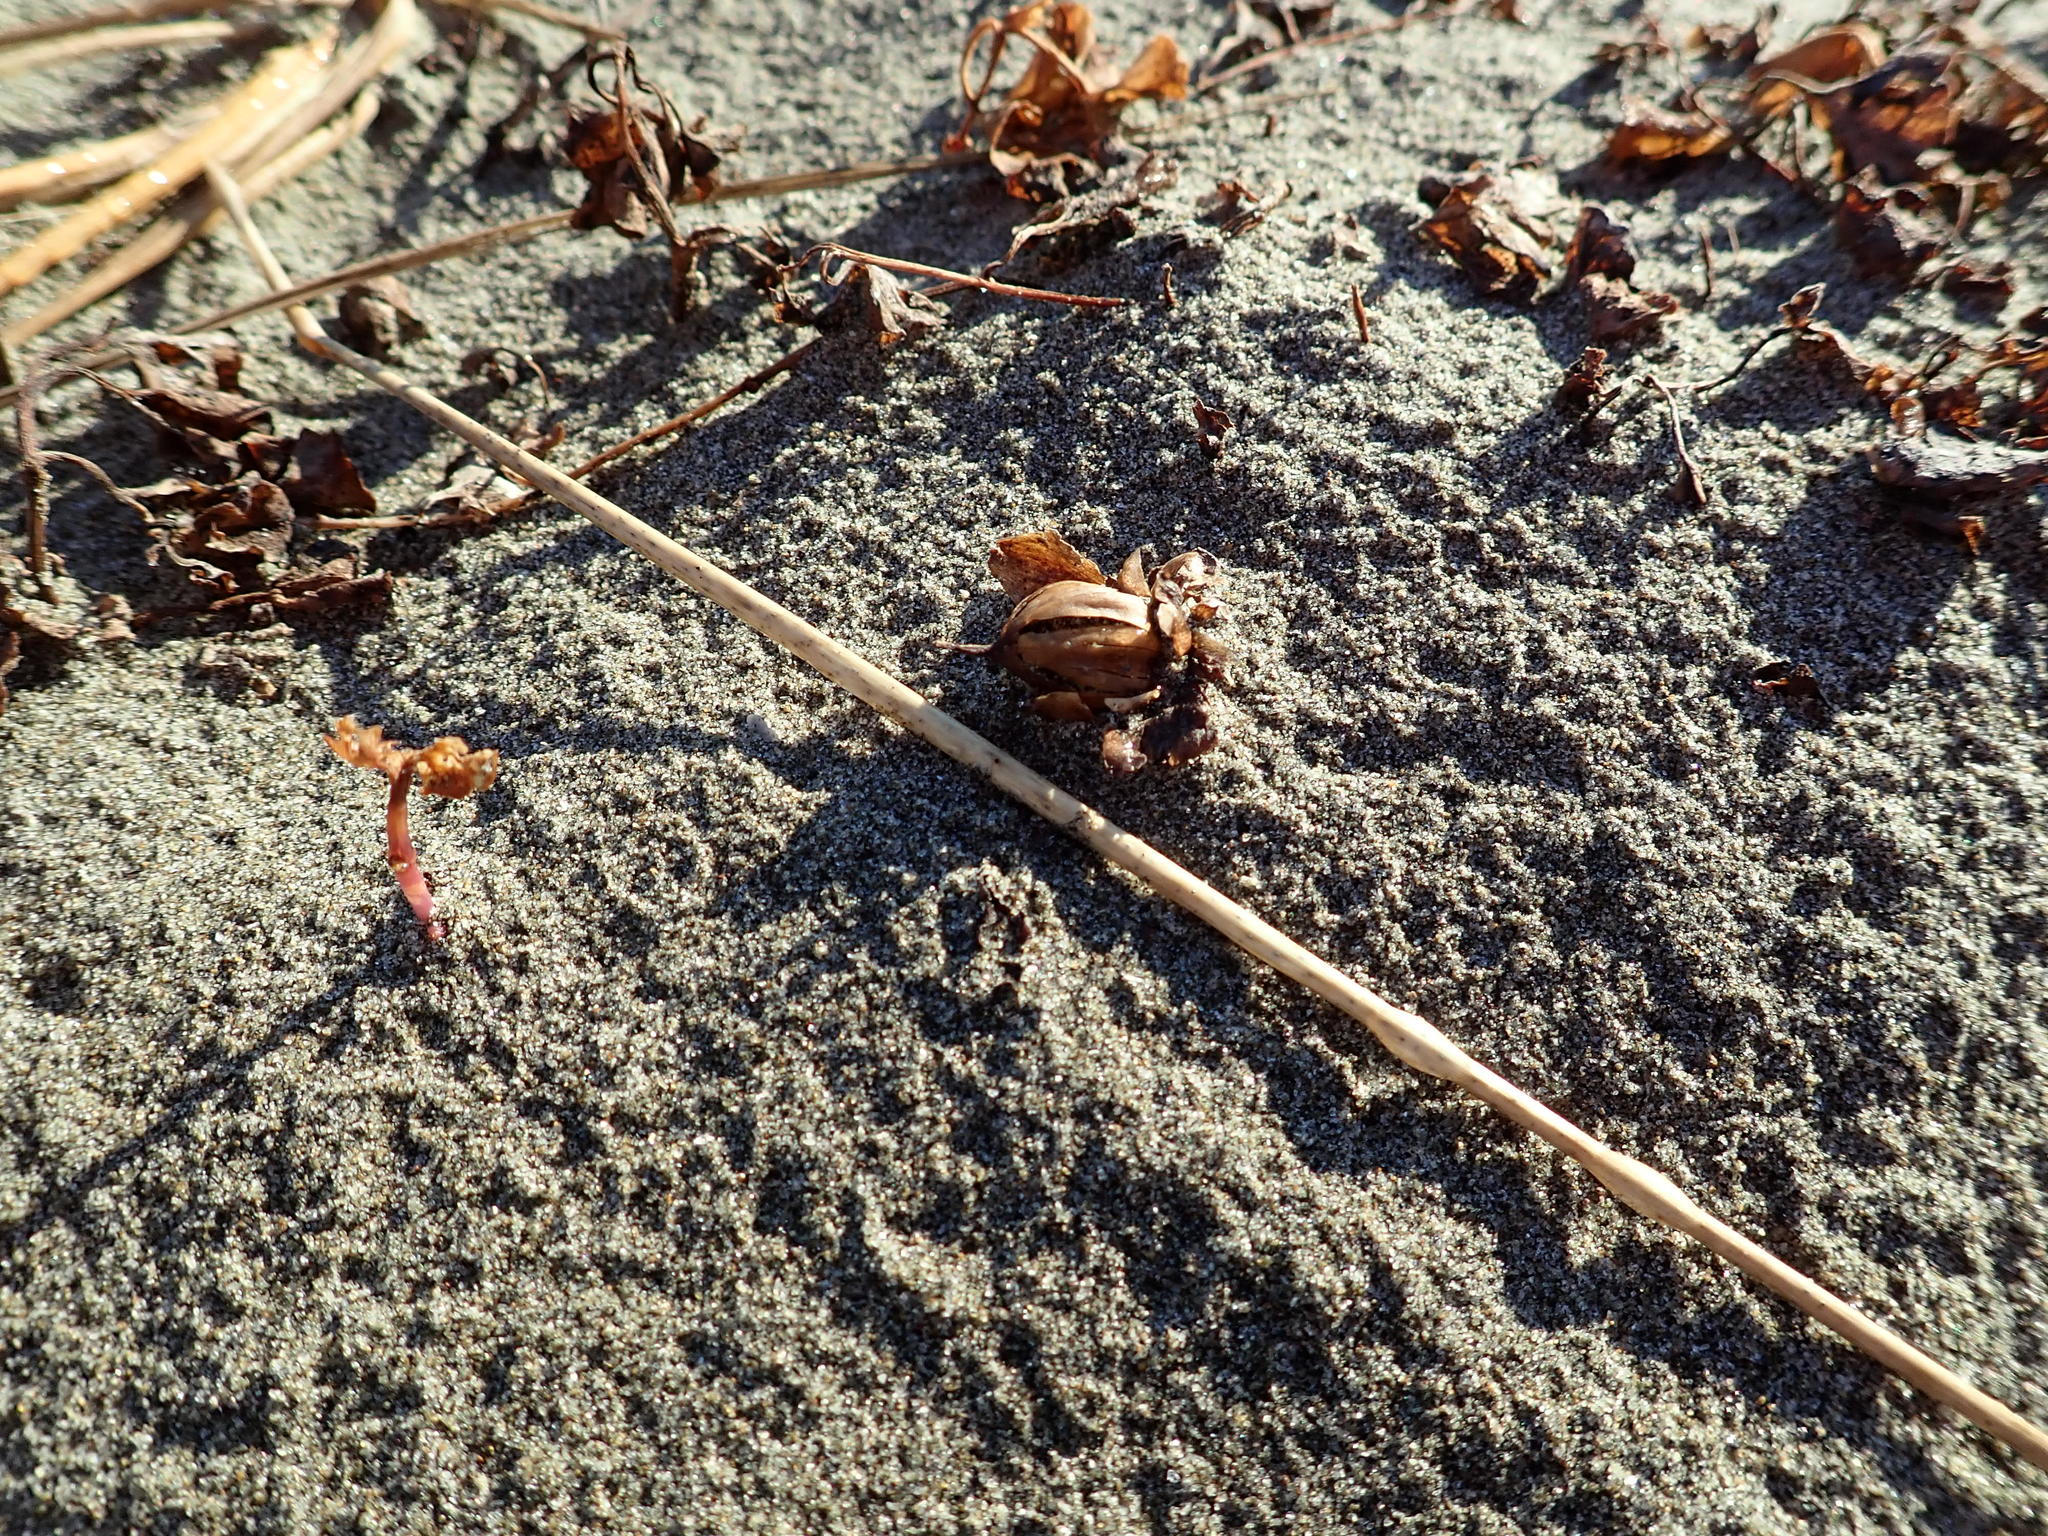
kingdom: Plantae
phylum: Tracheophyta
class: Magnoliopsida
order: Solanales
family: Convolvulaceae
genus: Calystegia
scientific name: Calystegia soldanella
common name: Sea bindweed
